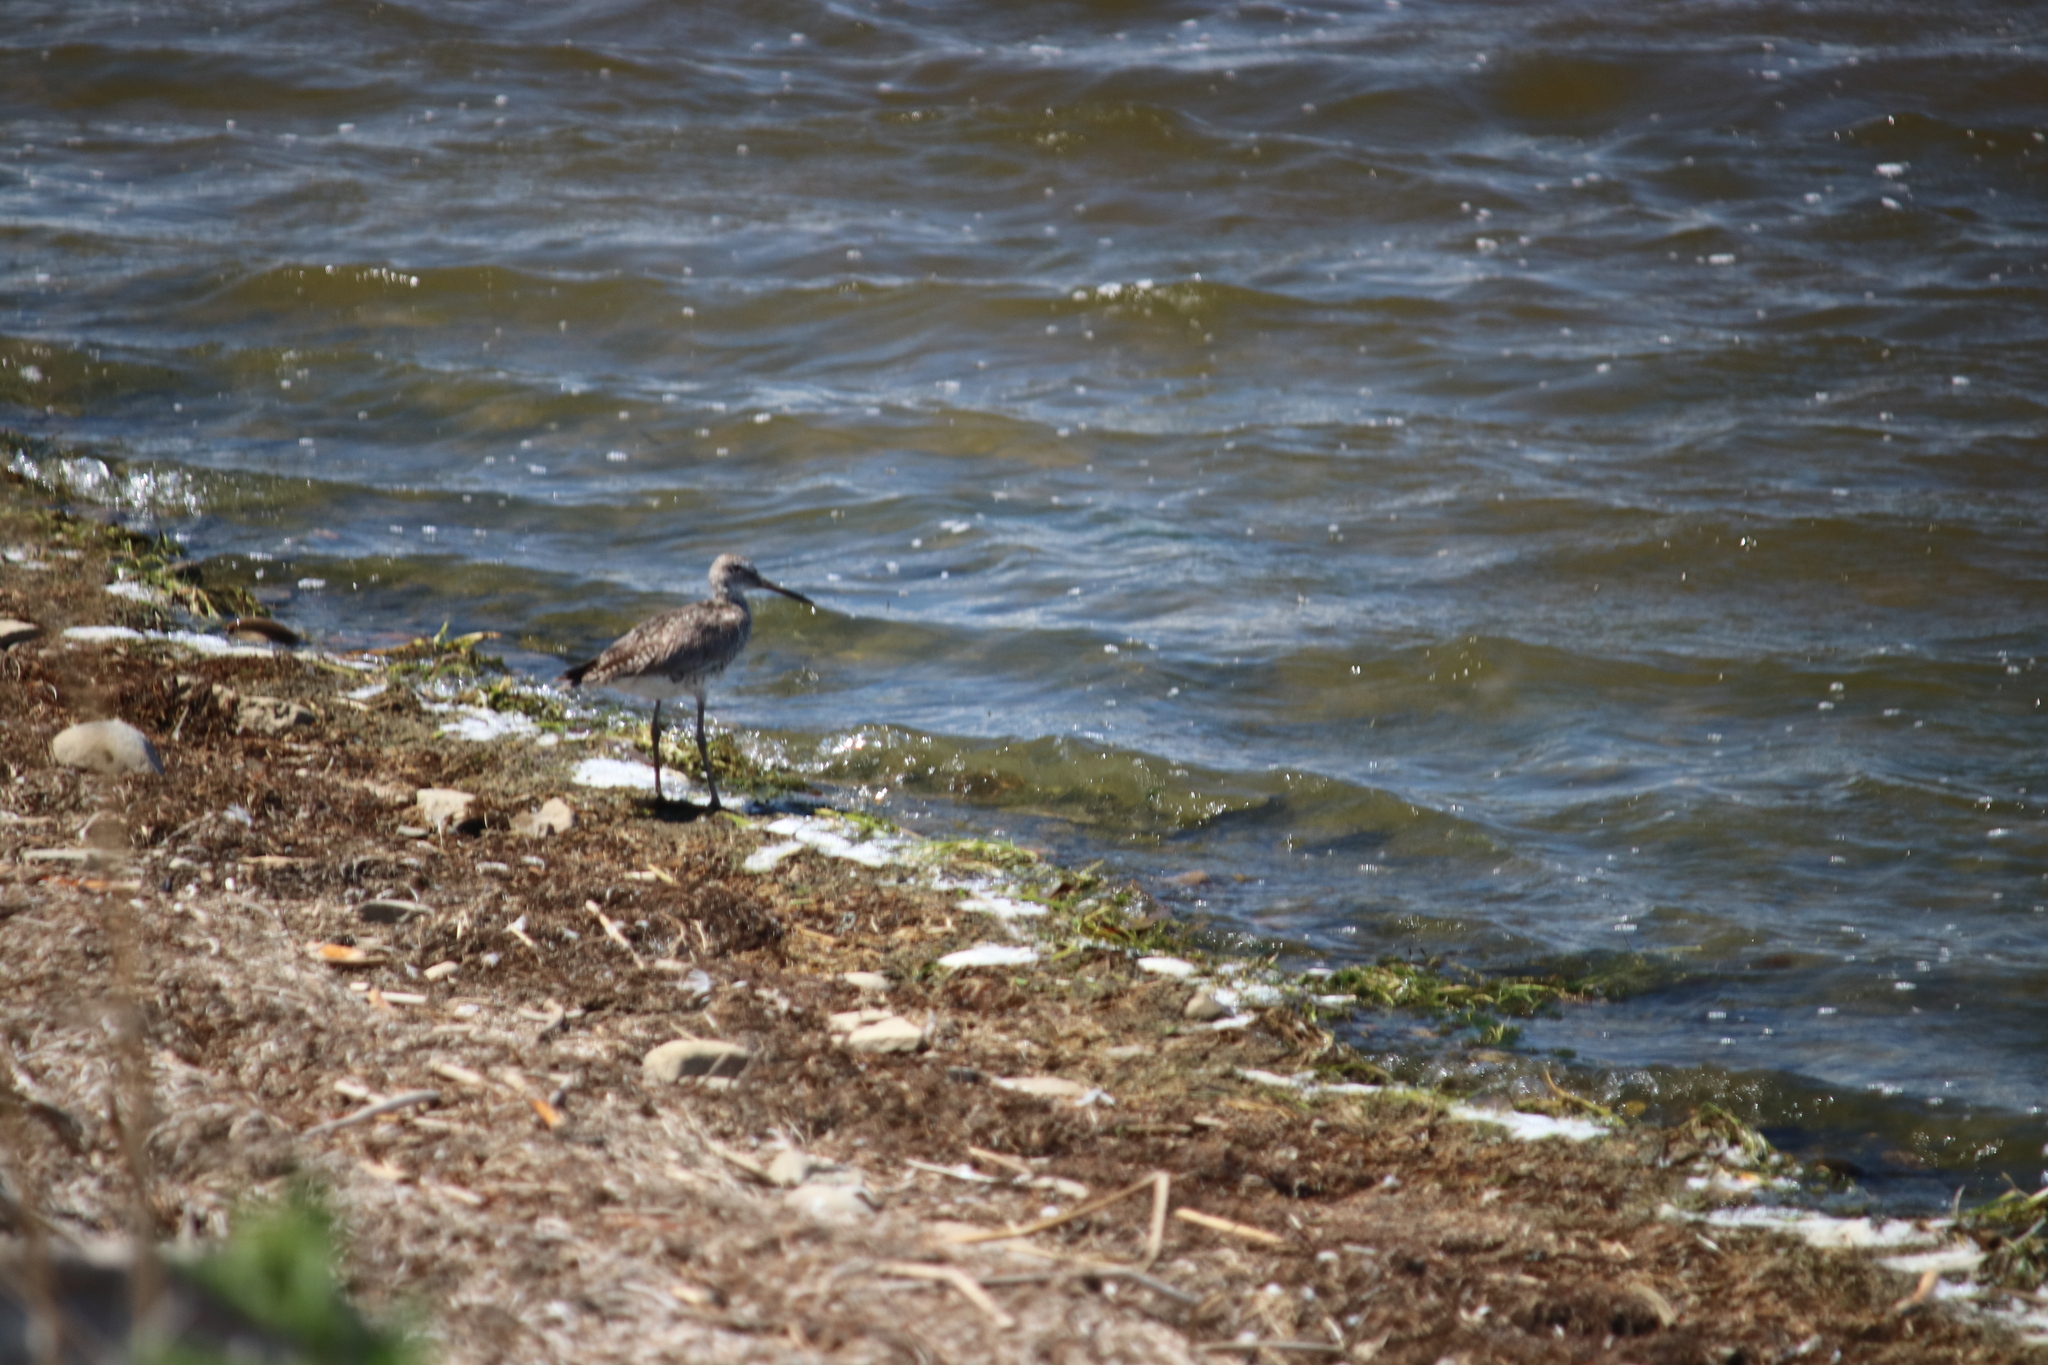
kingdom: Animalia
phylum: Chordata
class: Aves
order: Charadriiformes
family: Scolopacidae
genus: Tringa
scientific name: Tringa semipalmata
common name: Willet
